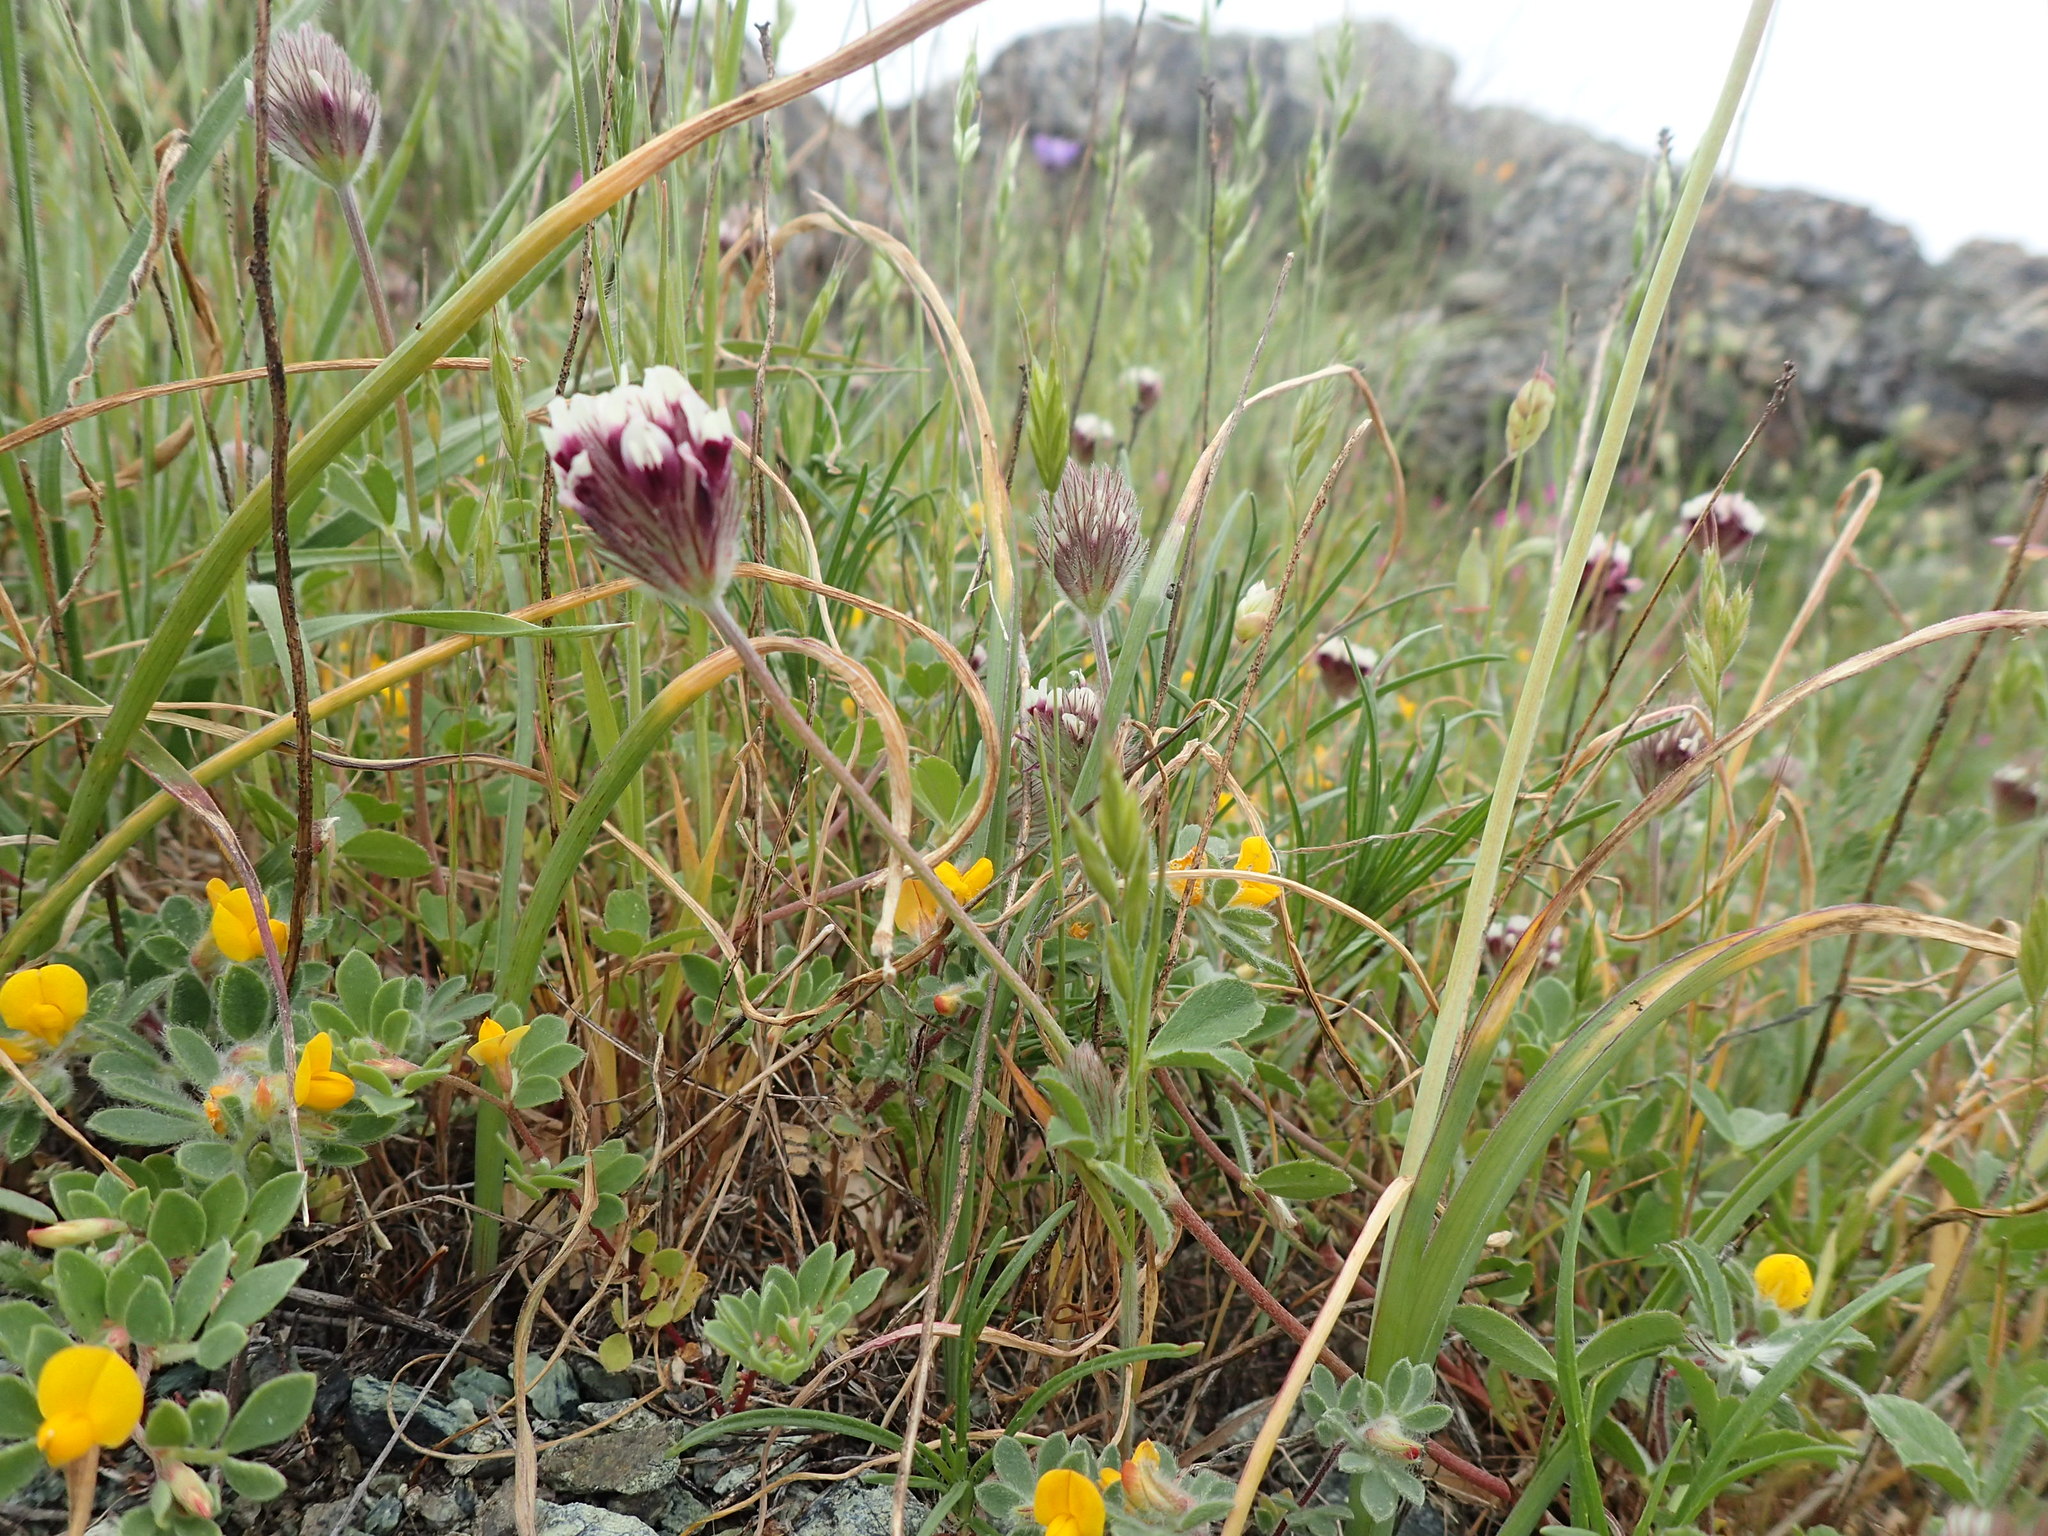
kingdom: Plantae
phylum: Tracheophyta
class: Magnoliopsida
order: Fabales
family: Fabaceae
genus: Trifolium
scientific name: Trifolium dichotomum
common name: Branched indian clover
